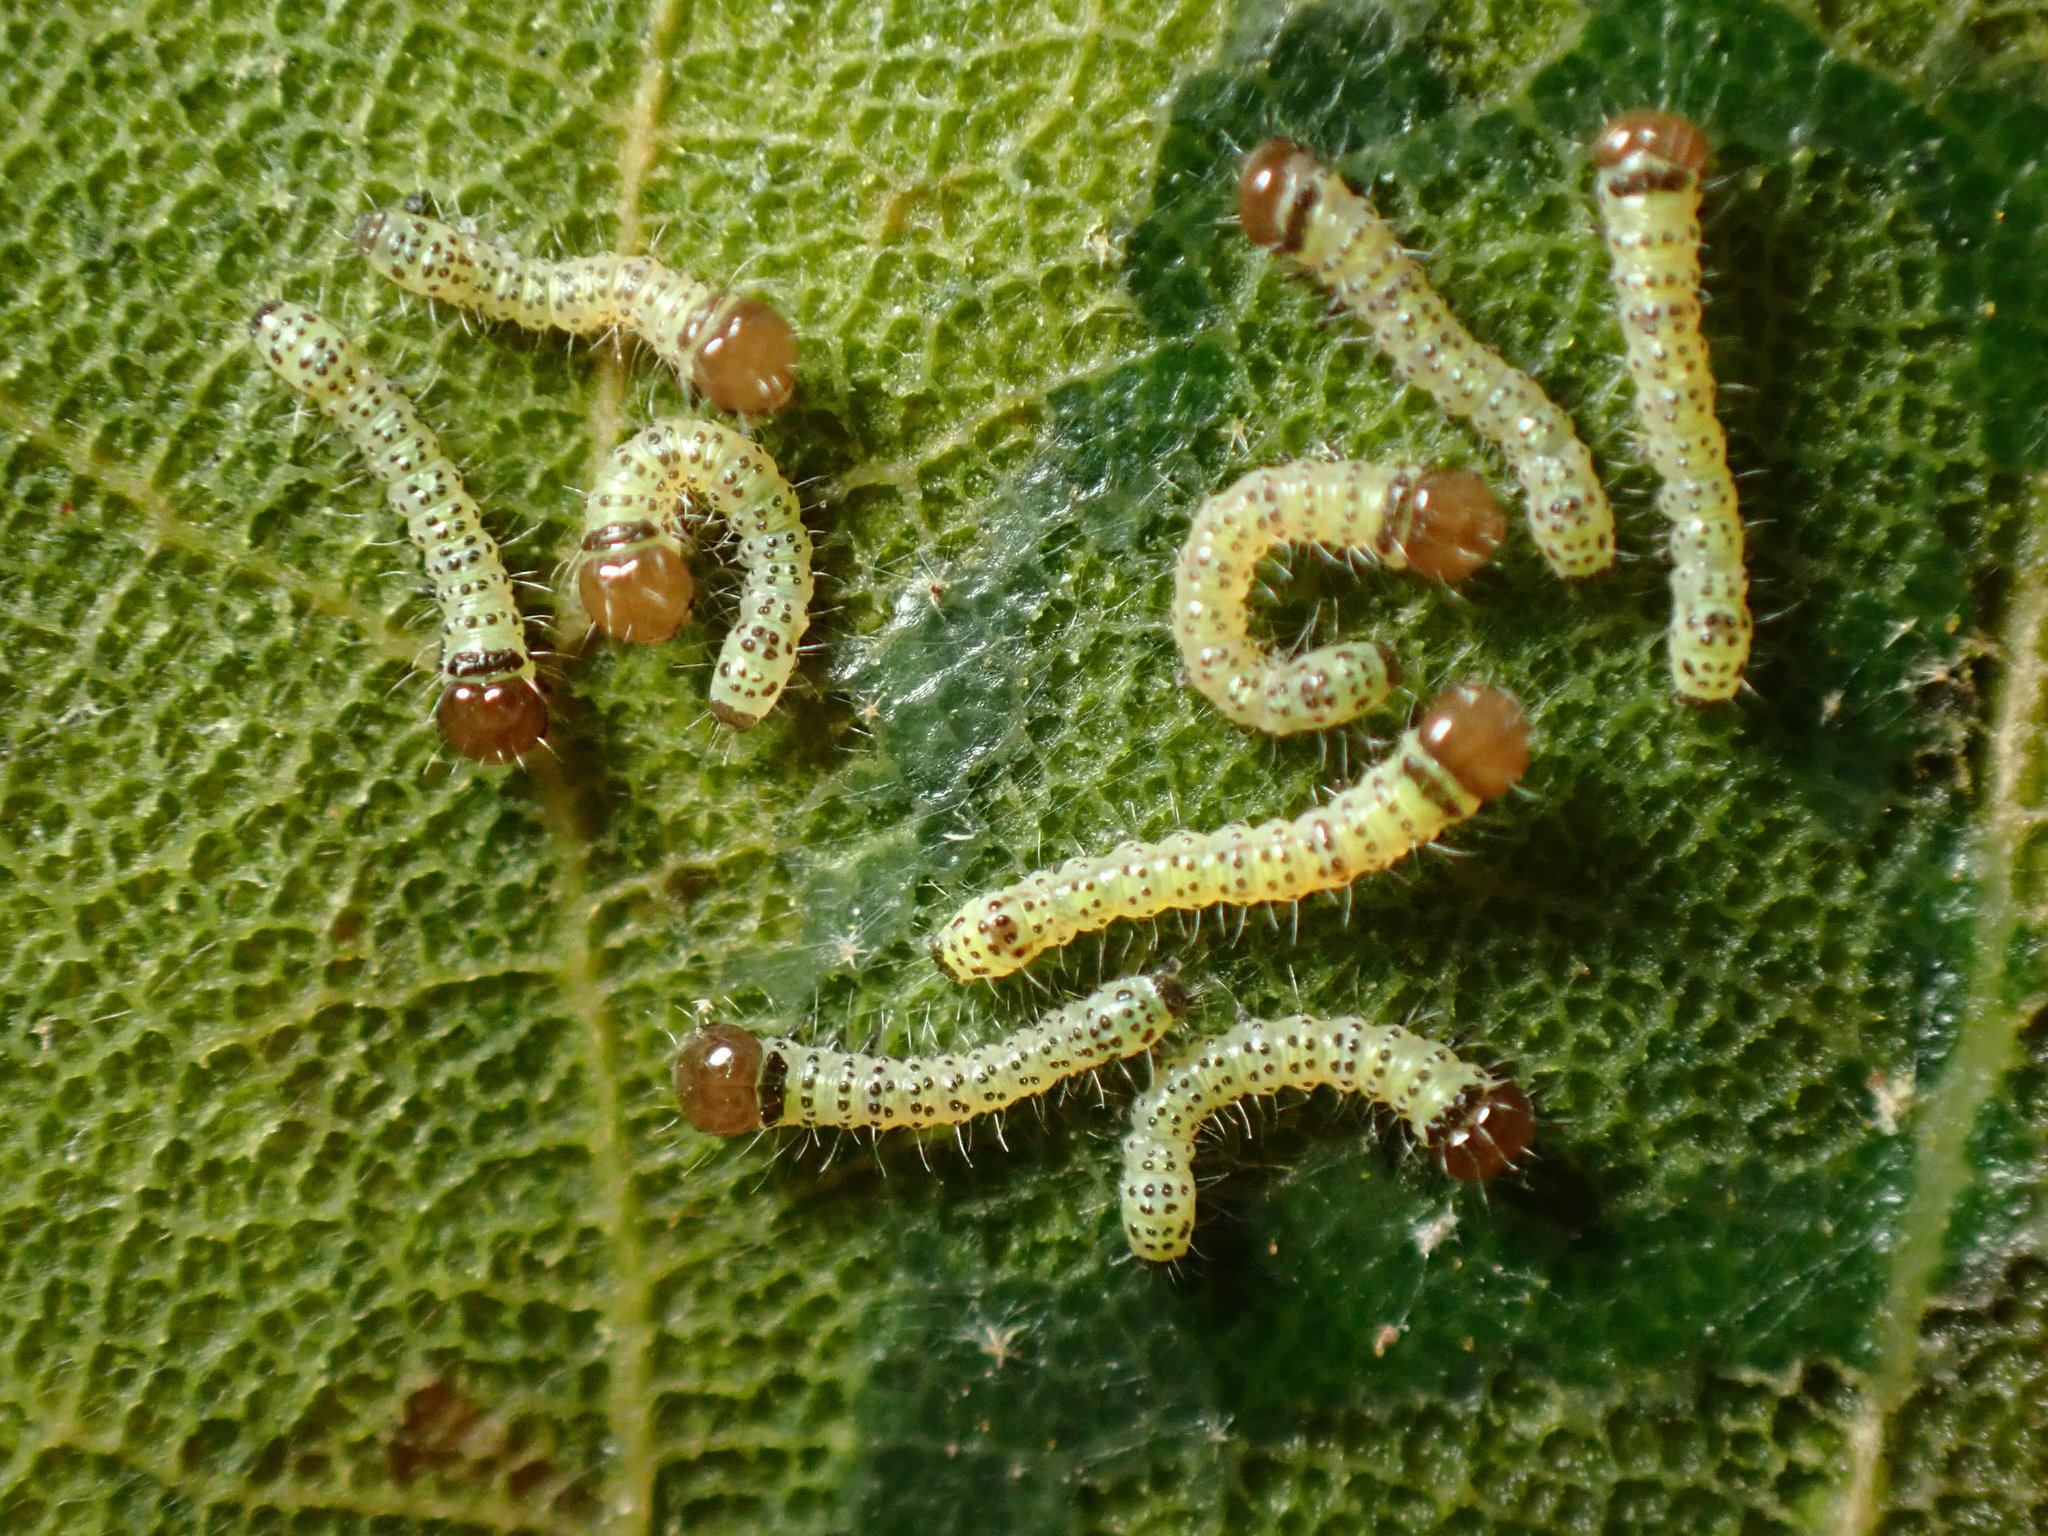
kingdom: Animalia
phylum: Arthropoda
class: Insecta
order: Lepidoptera
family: Notodontidae
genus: Phryganidia
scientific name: Phryganidia californica
